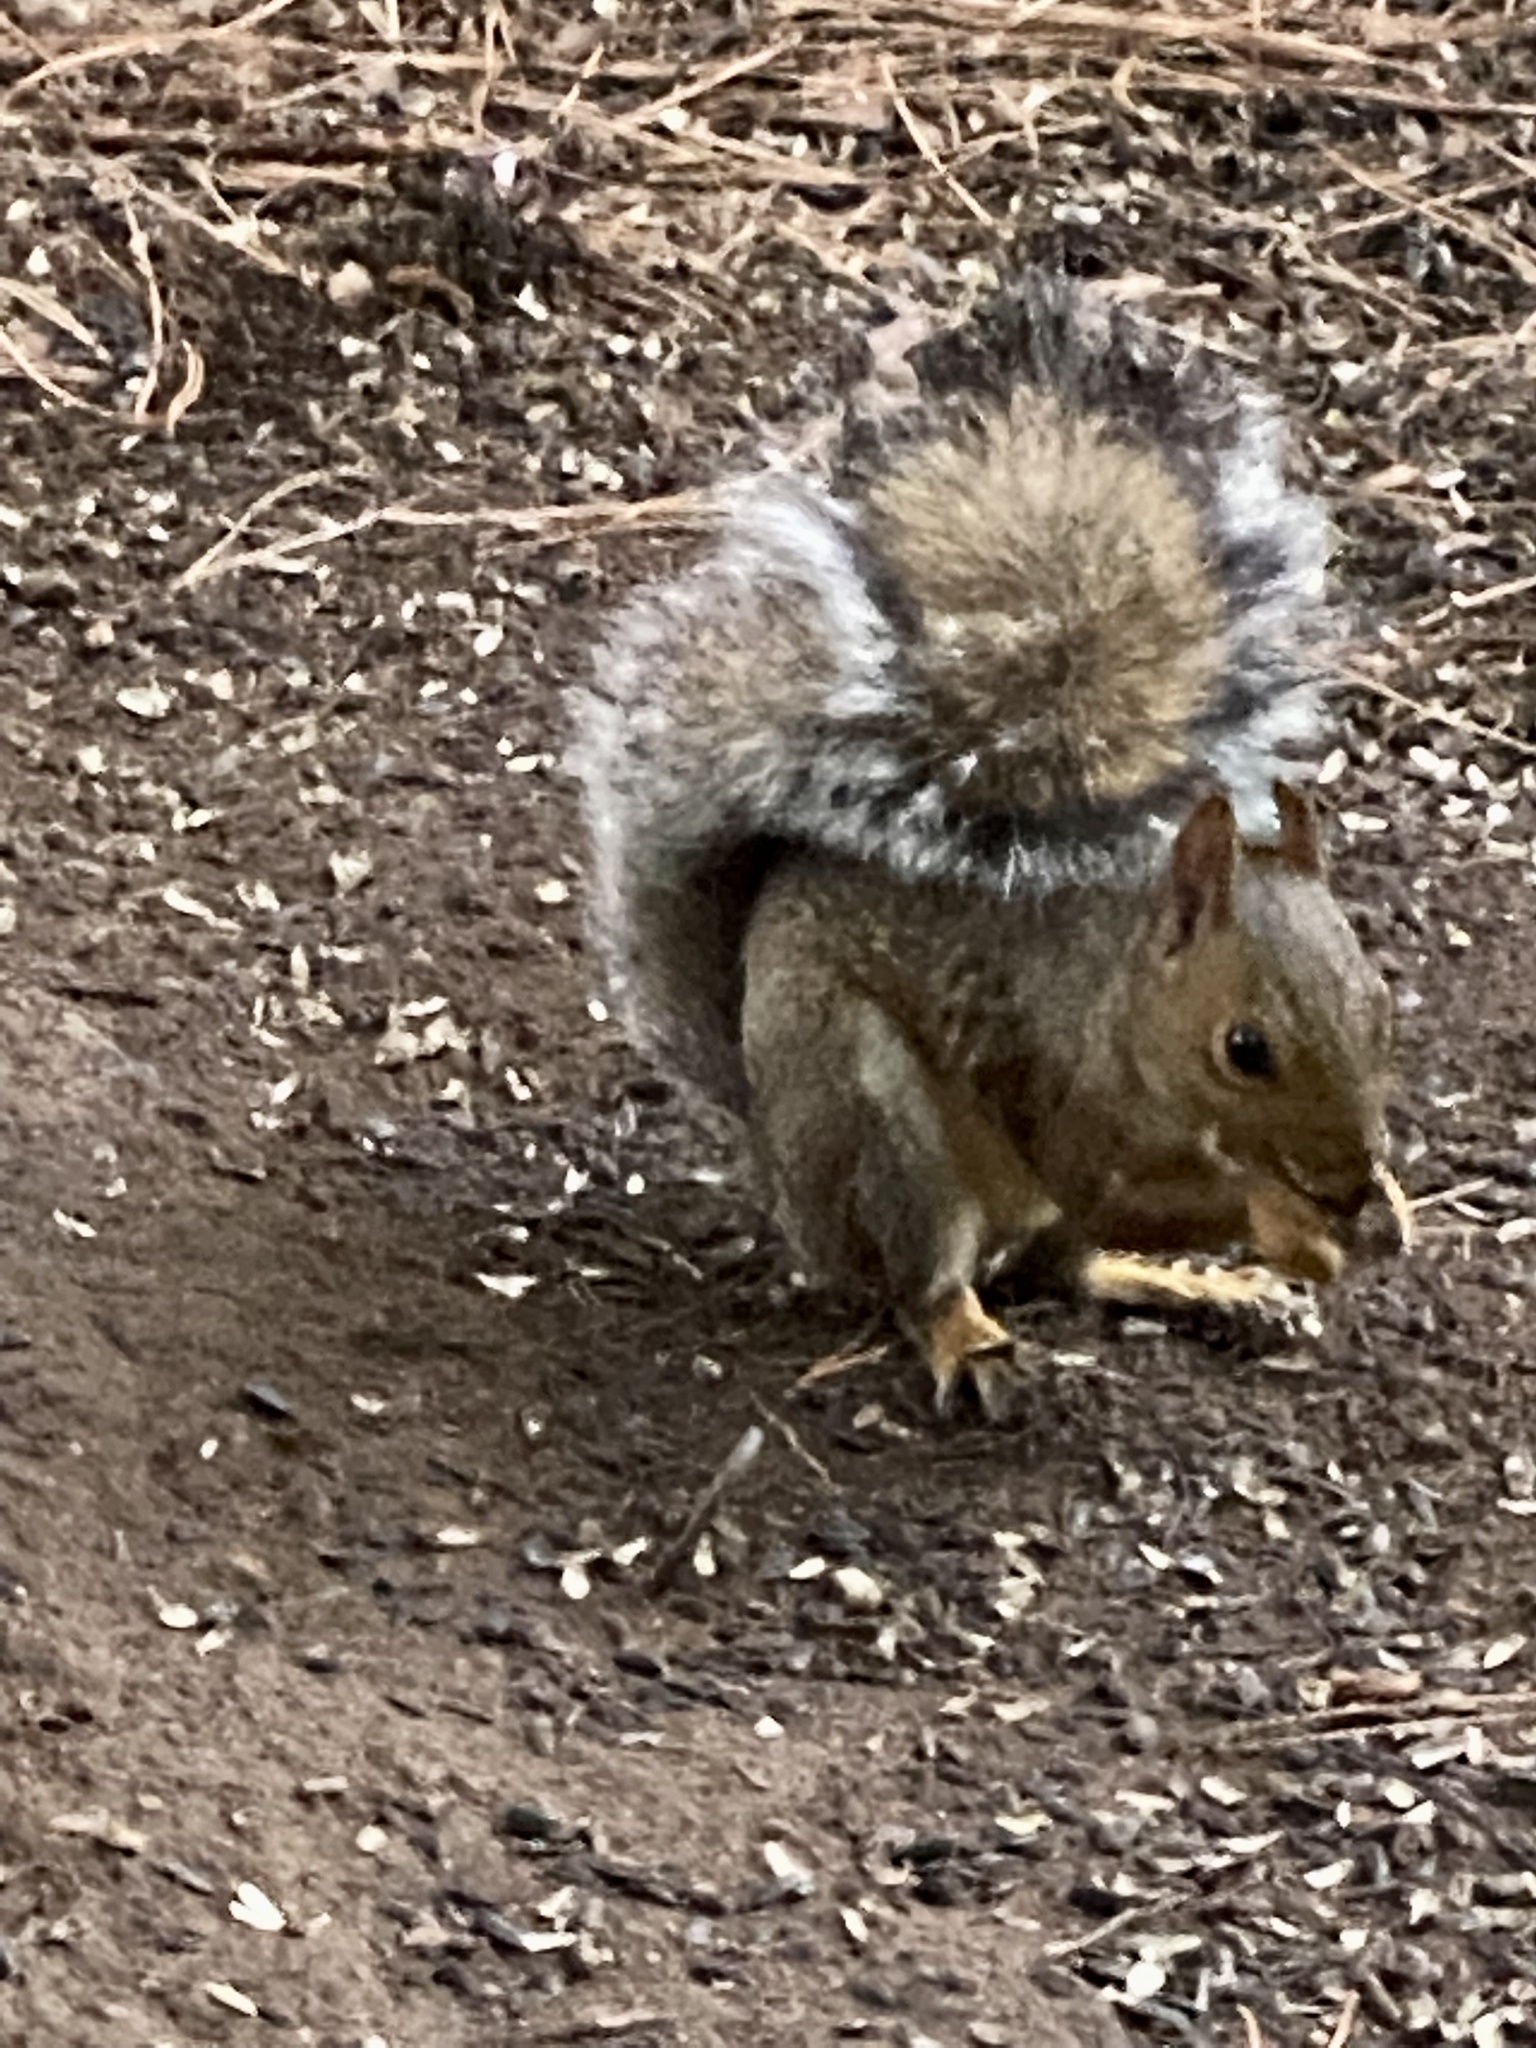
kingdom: Animalia
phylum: Chordata
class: Mammalia
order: Rodentia
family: Sciuridae
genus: Sciurus
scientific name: Sciurus carolinensis
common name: Eastern gray squirrel
